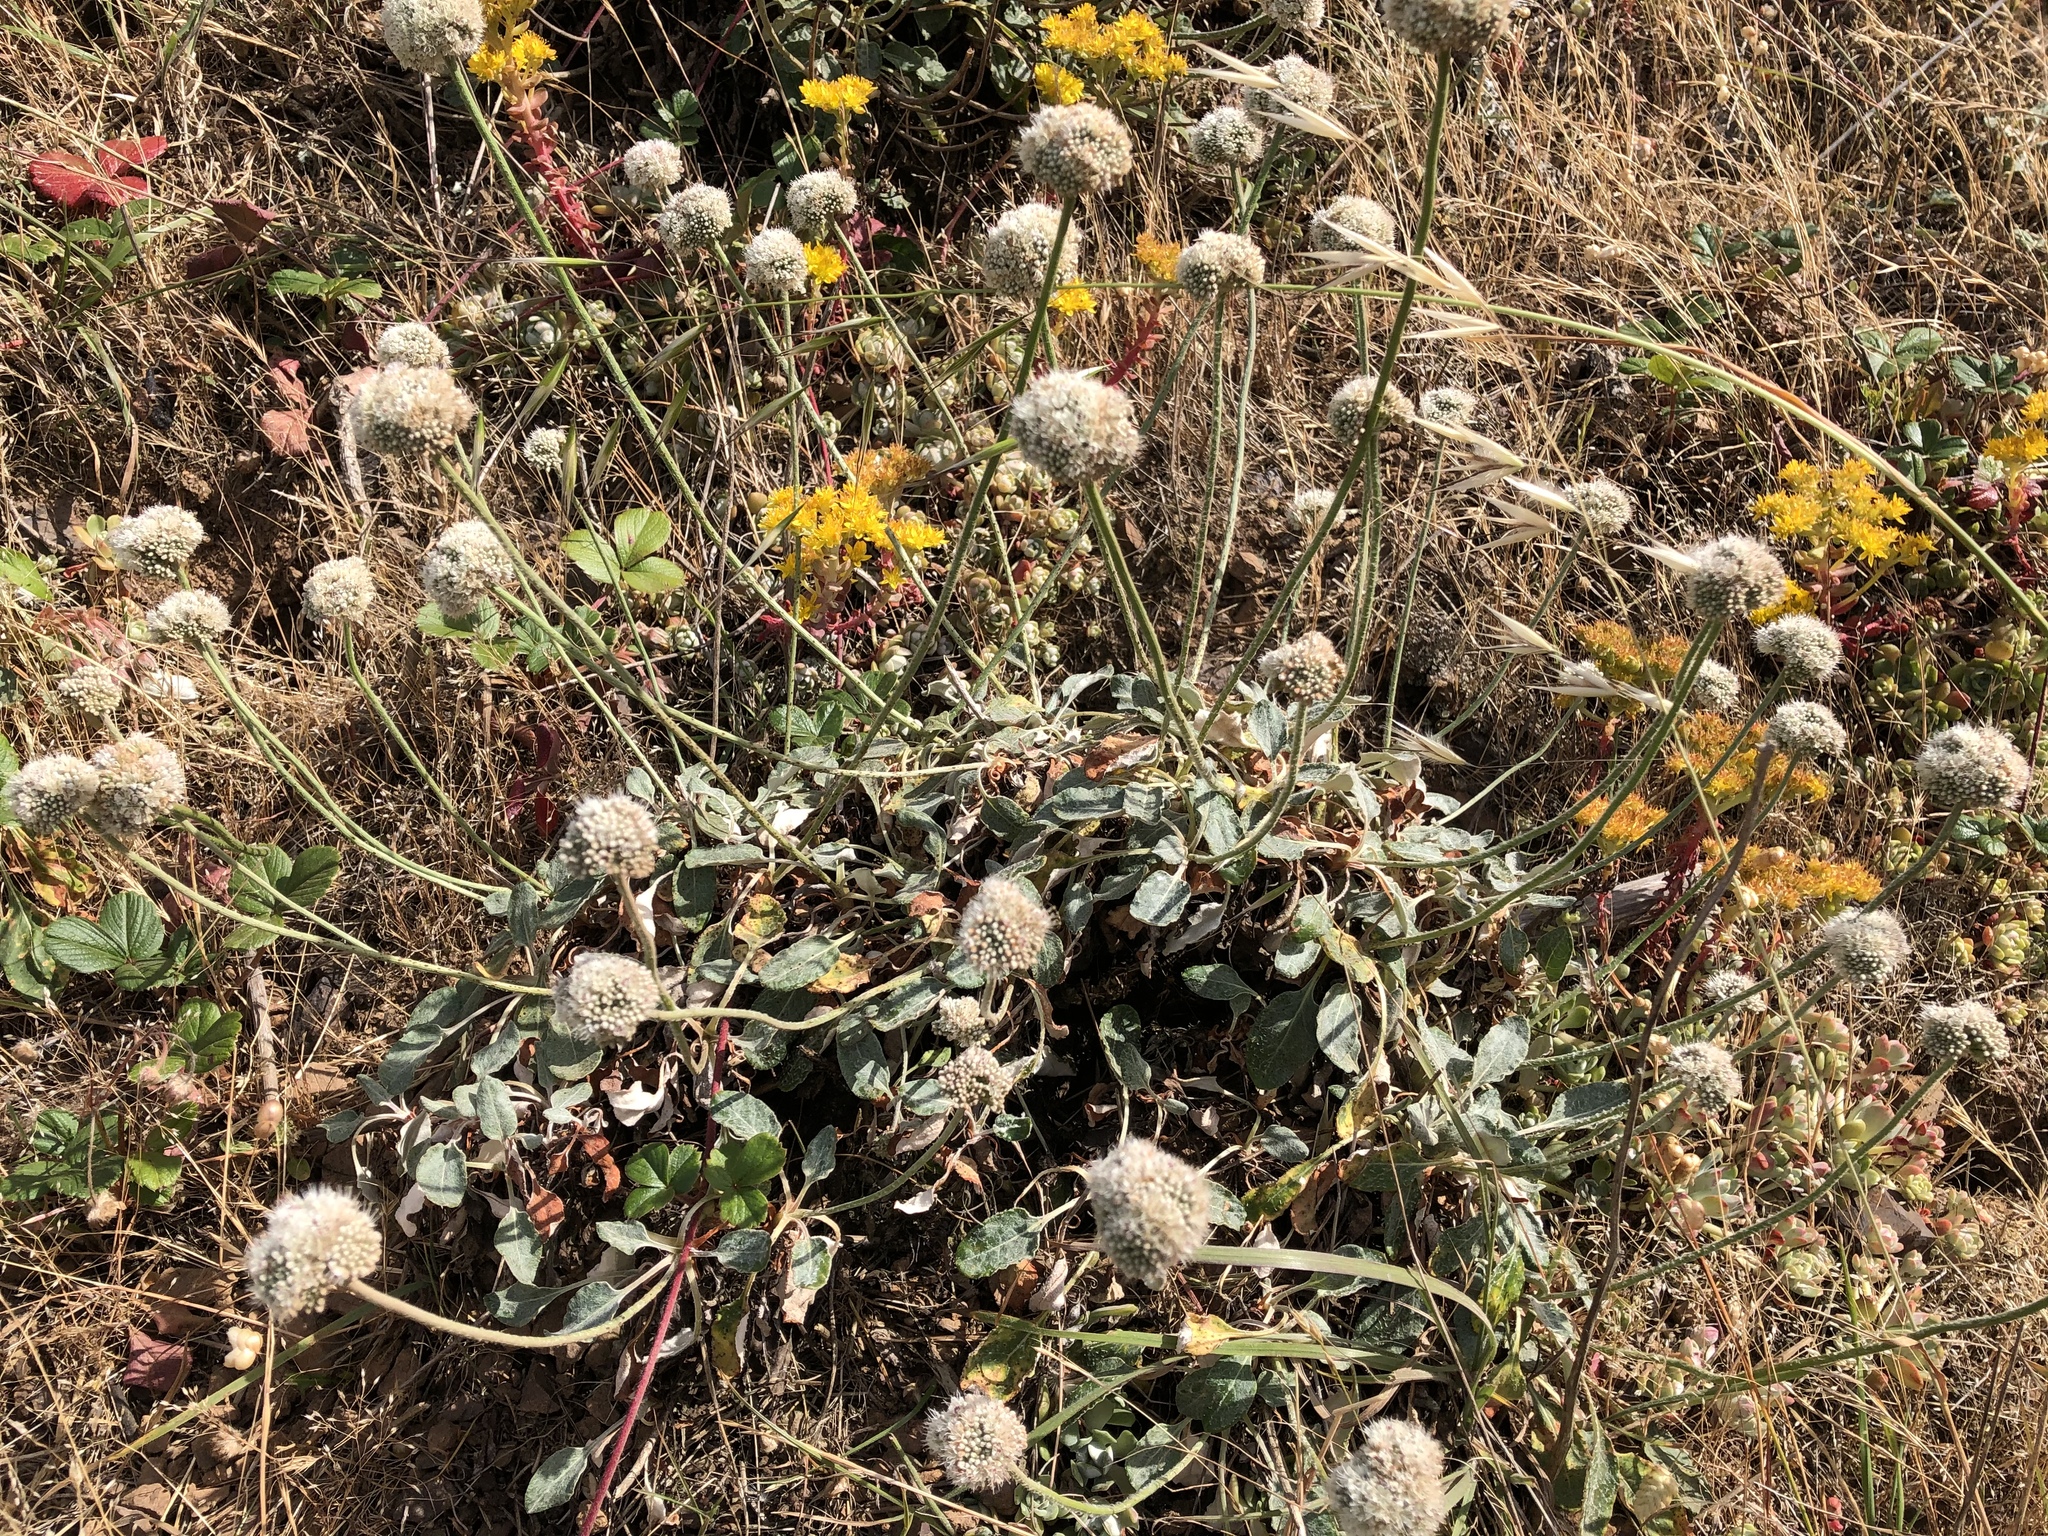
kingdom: Plantae
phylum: Tracheophyta
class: Magnoliopsida
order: Caryophyllales
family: Polygonaceae
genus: Eriogonum
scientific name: Eriogonum latifolium
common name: Seaside wild buckwheat
